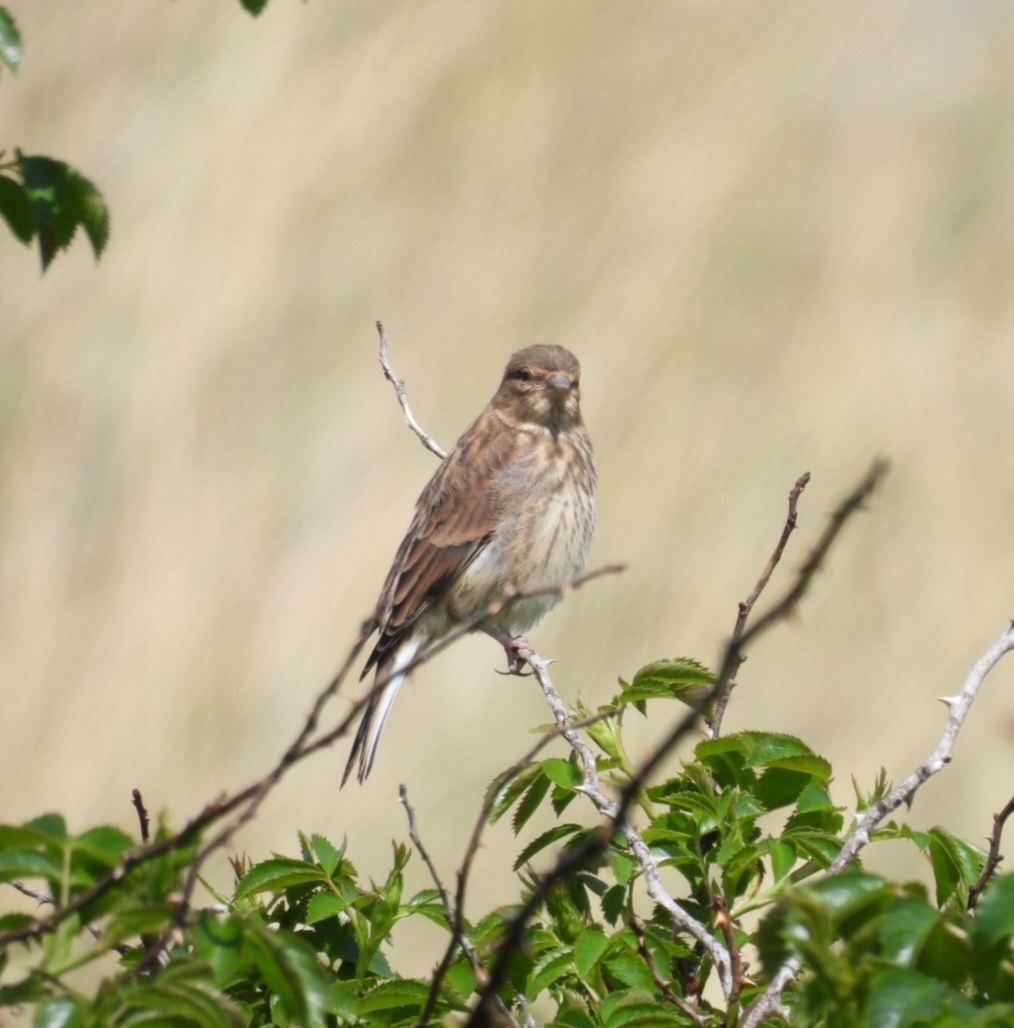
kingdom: Animalia
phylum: Chordata
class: Aves
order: Passeriformes
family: Fringillidae
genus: Linaria
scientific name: Linaria cannabina
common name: Common linnet
